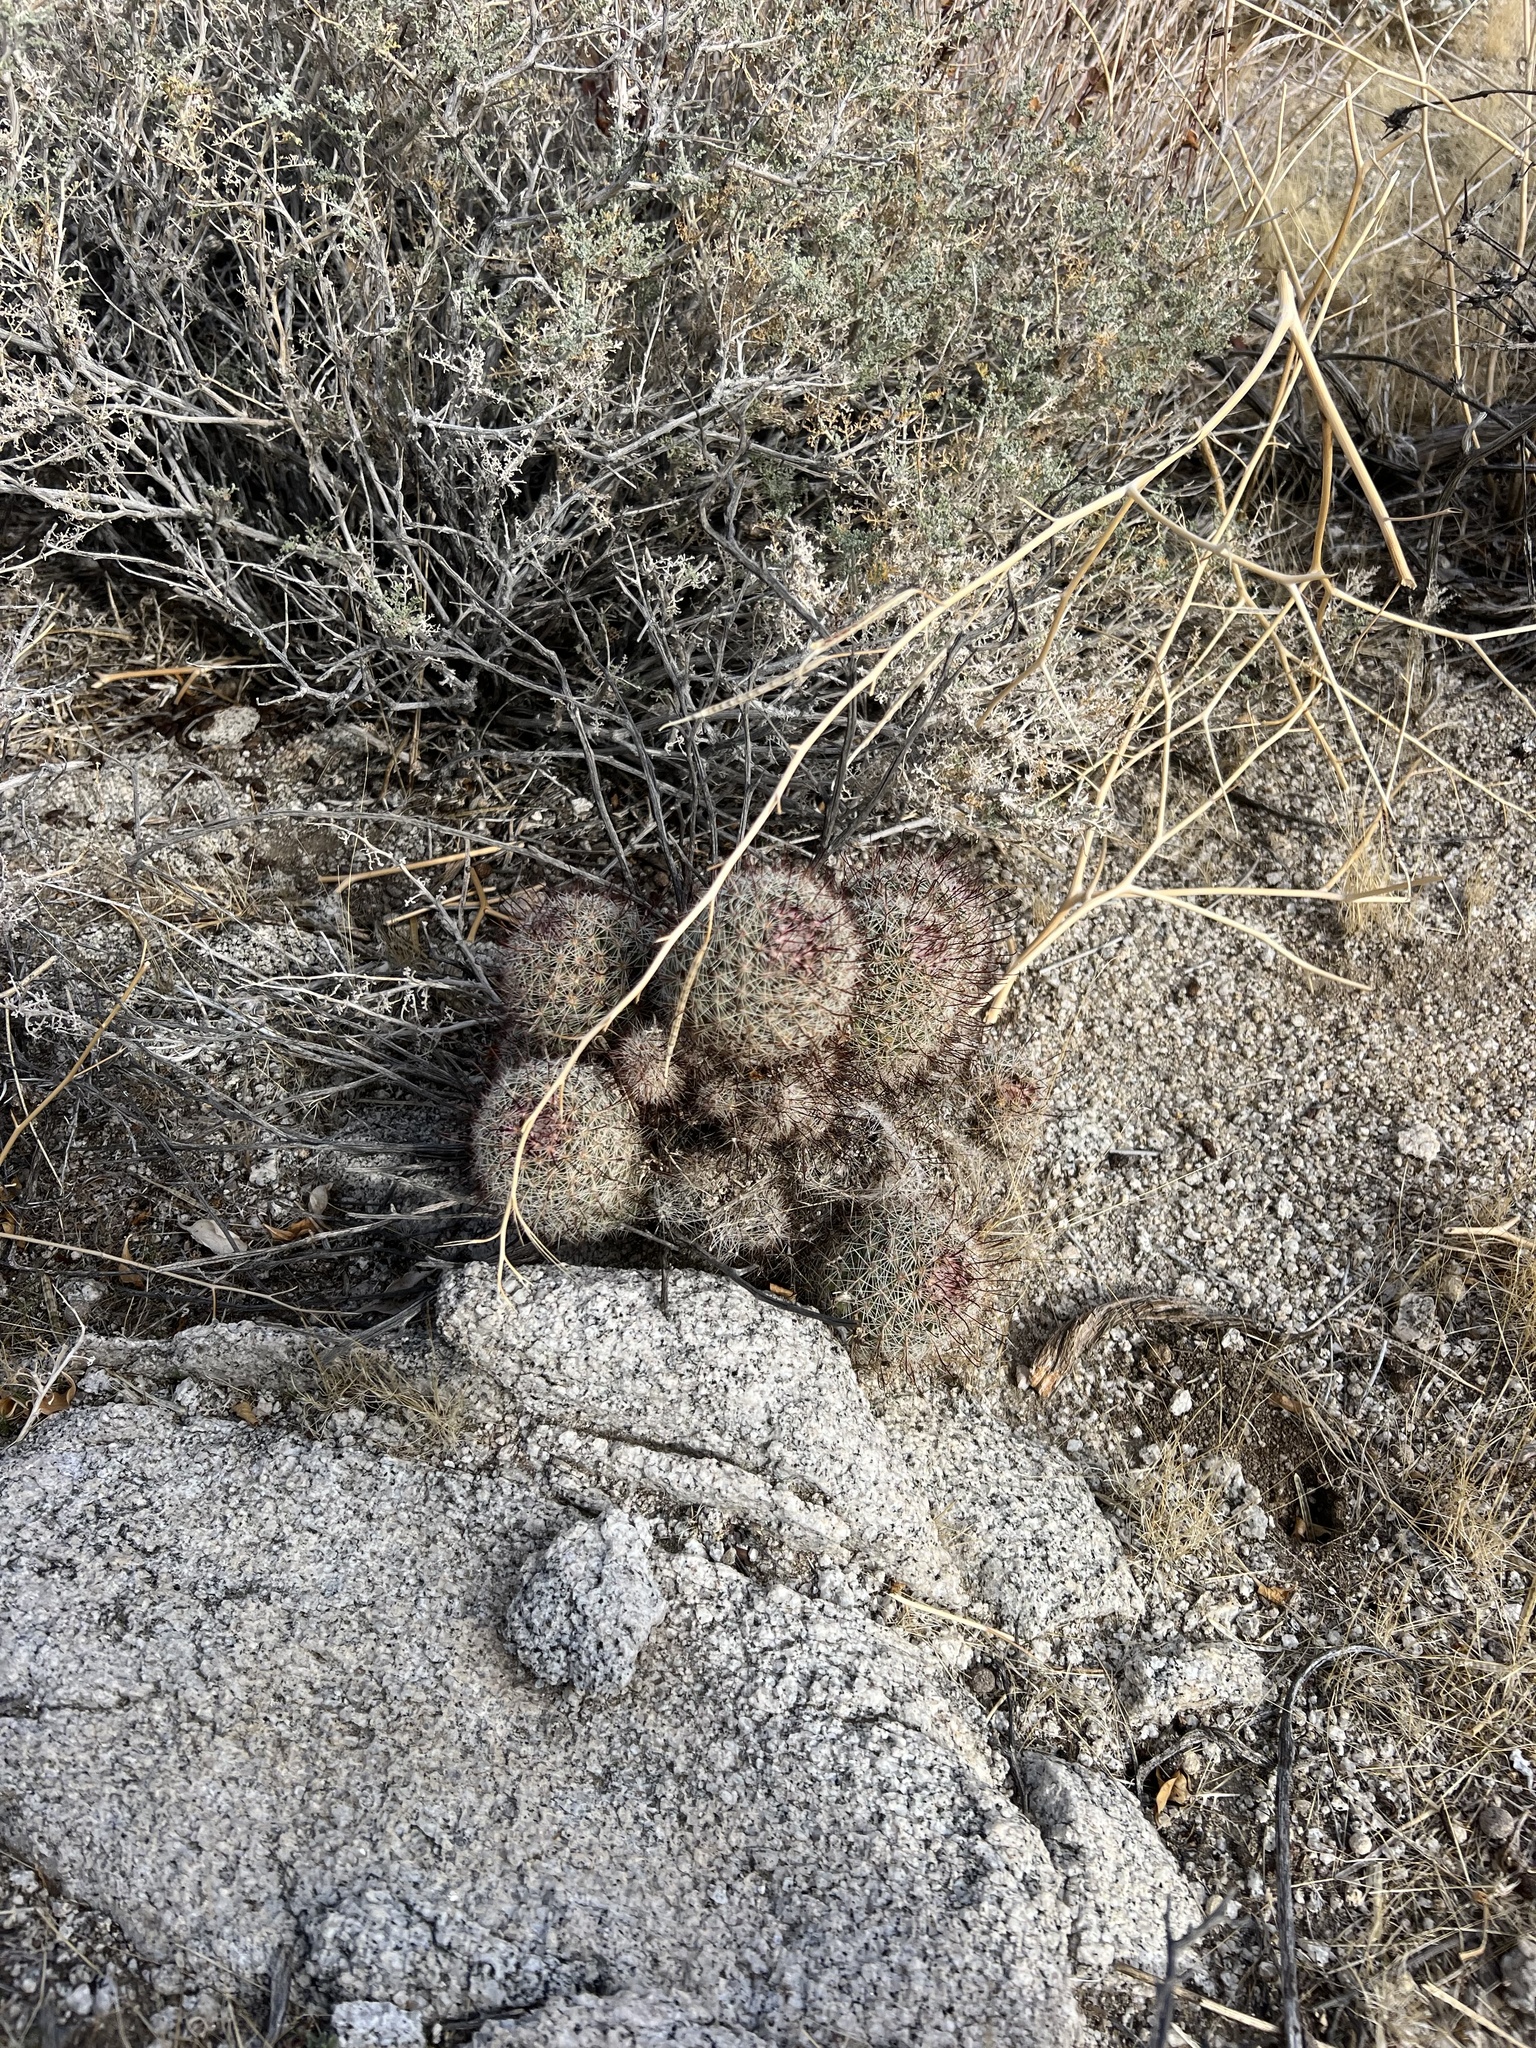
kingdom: Plantae
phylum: Tracheophyta
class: Magnoliopsida
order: Caryophyllales
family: Cactaceae
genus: Cochemiea
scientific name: Cochemiea dioica
